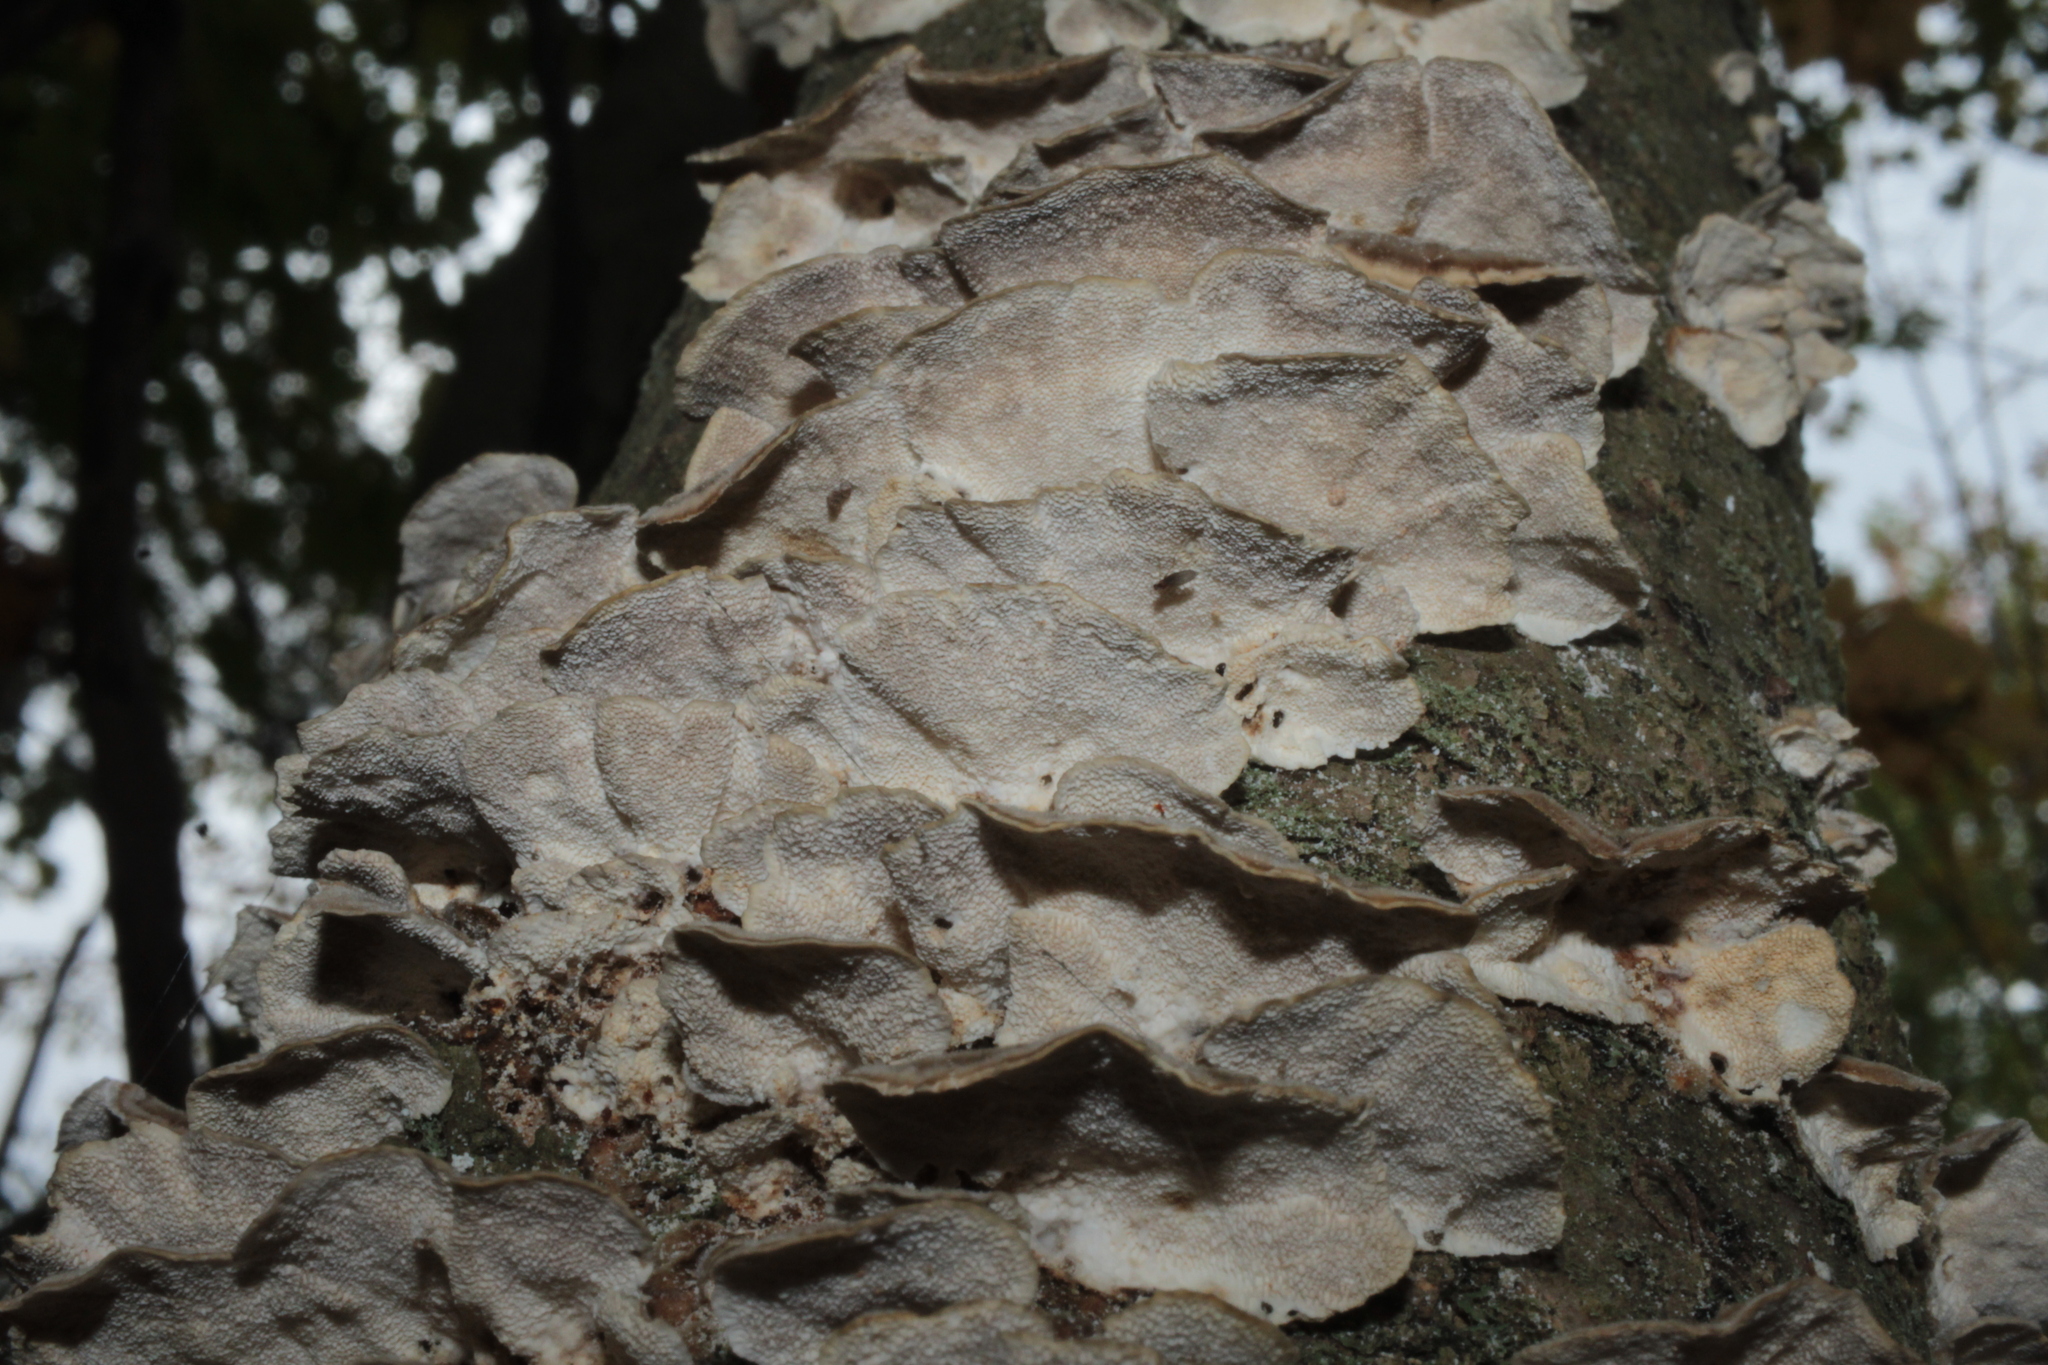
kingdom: Fungi
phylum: Basidiomycota
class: Agaricomycetes
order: Polyporales
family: Polyporaceae
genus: Trametes
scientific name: Trametes versicolor
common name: Turkeytail
